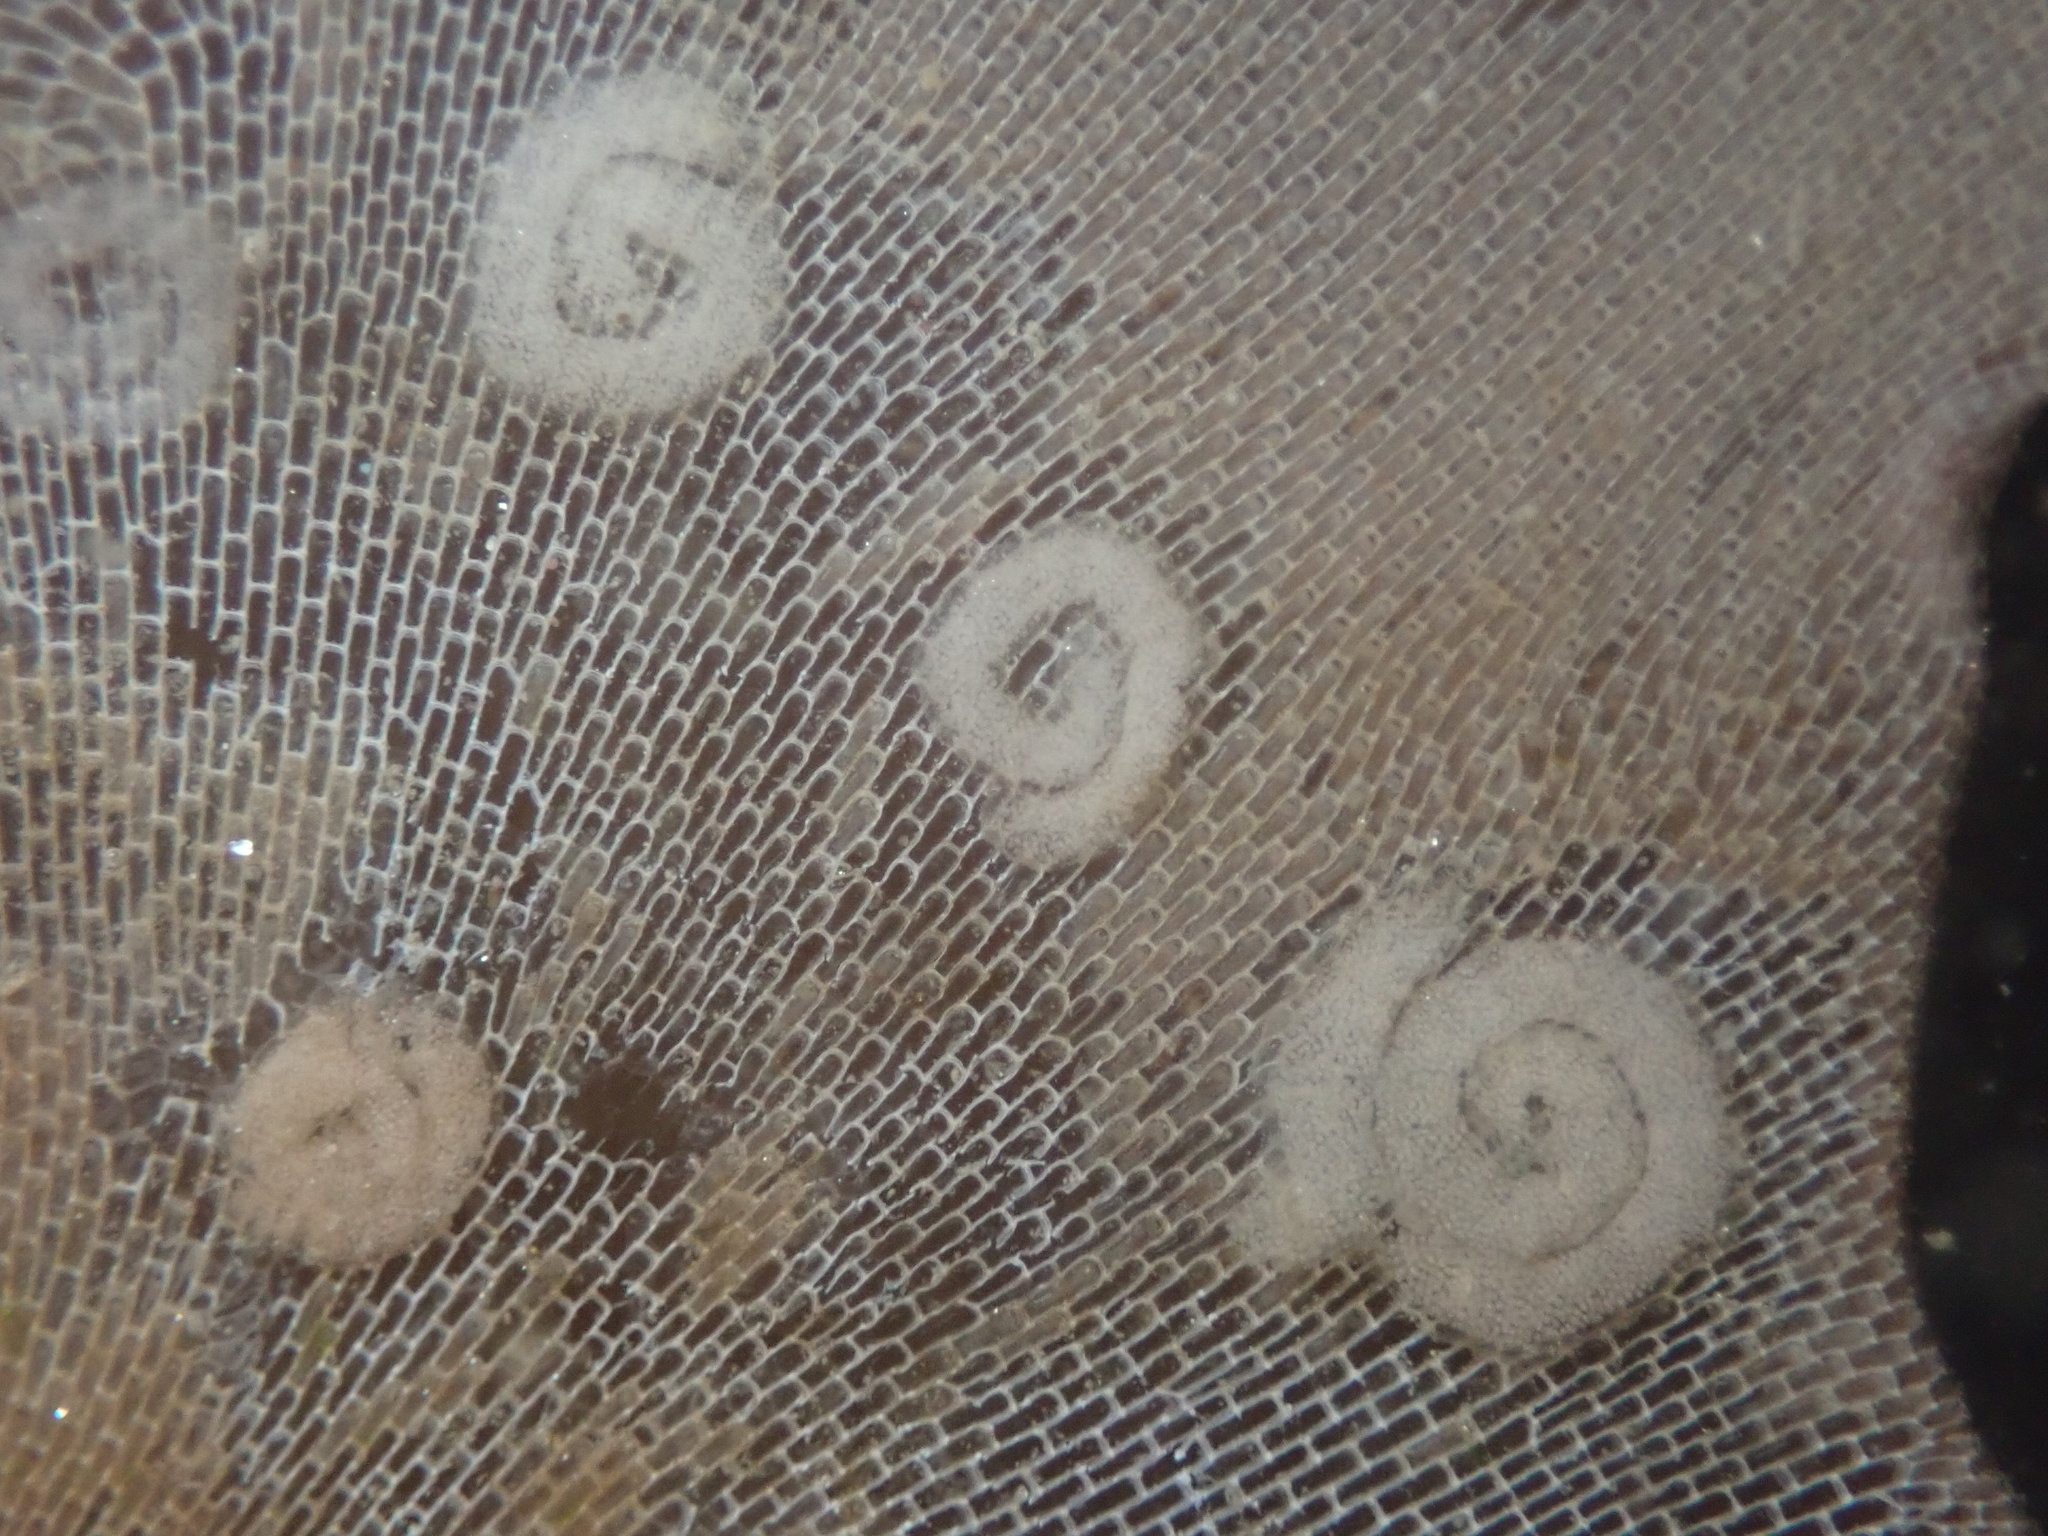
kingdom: Animalia
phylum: Mollusca
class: Gastropoda
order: Nudibranchia
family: Corambidae
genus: Corambe
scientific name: Corambe pacifica
